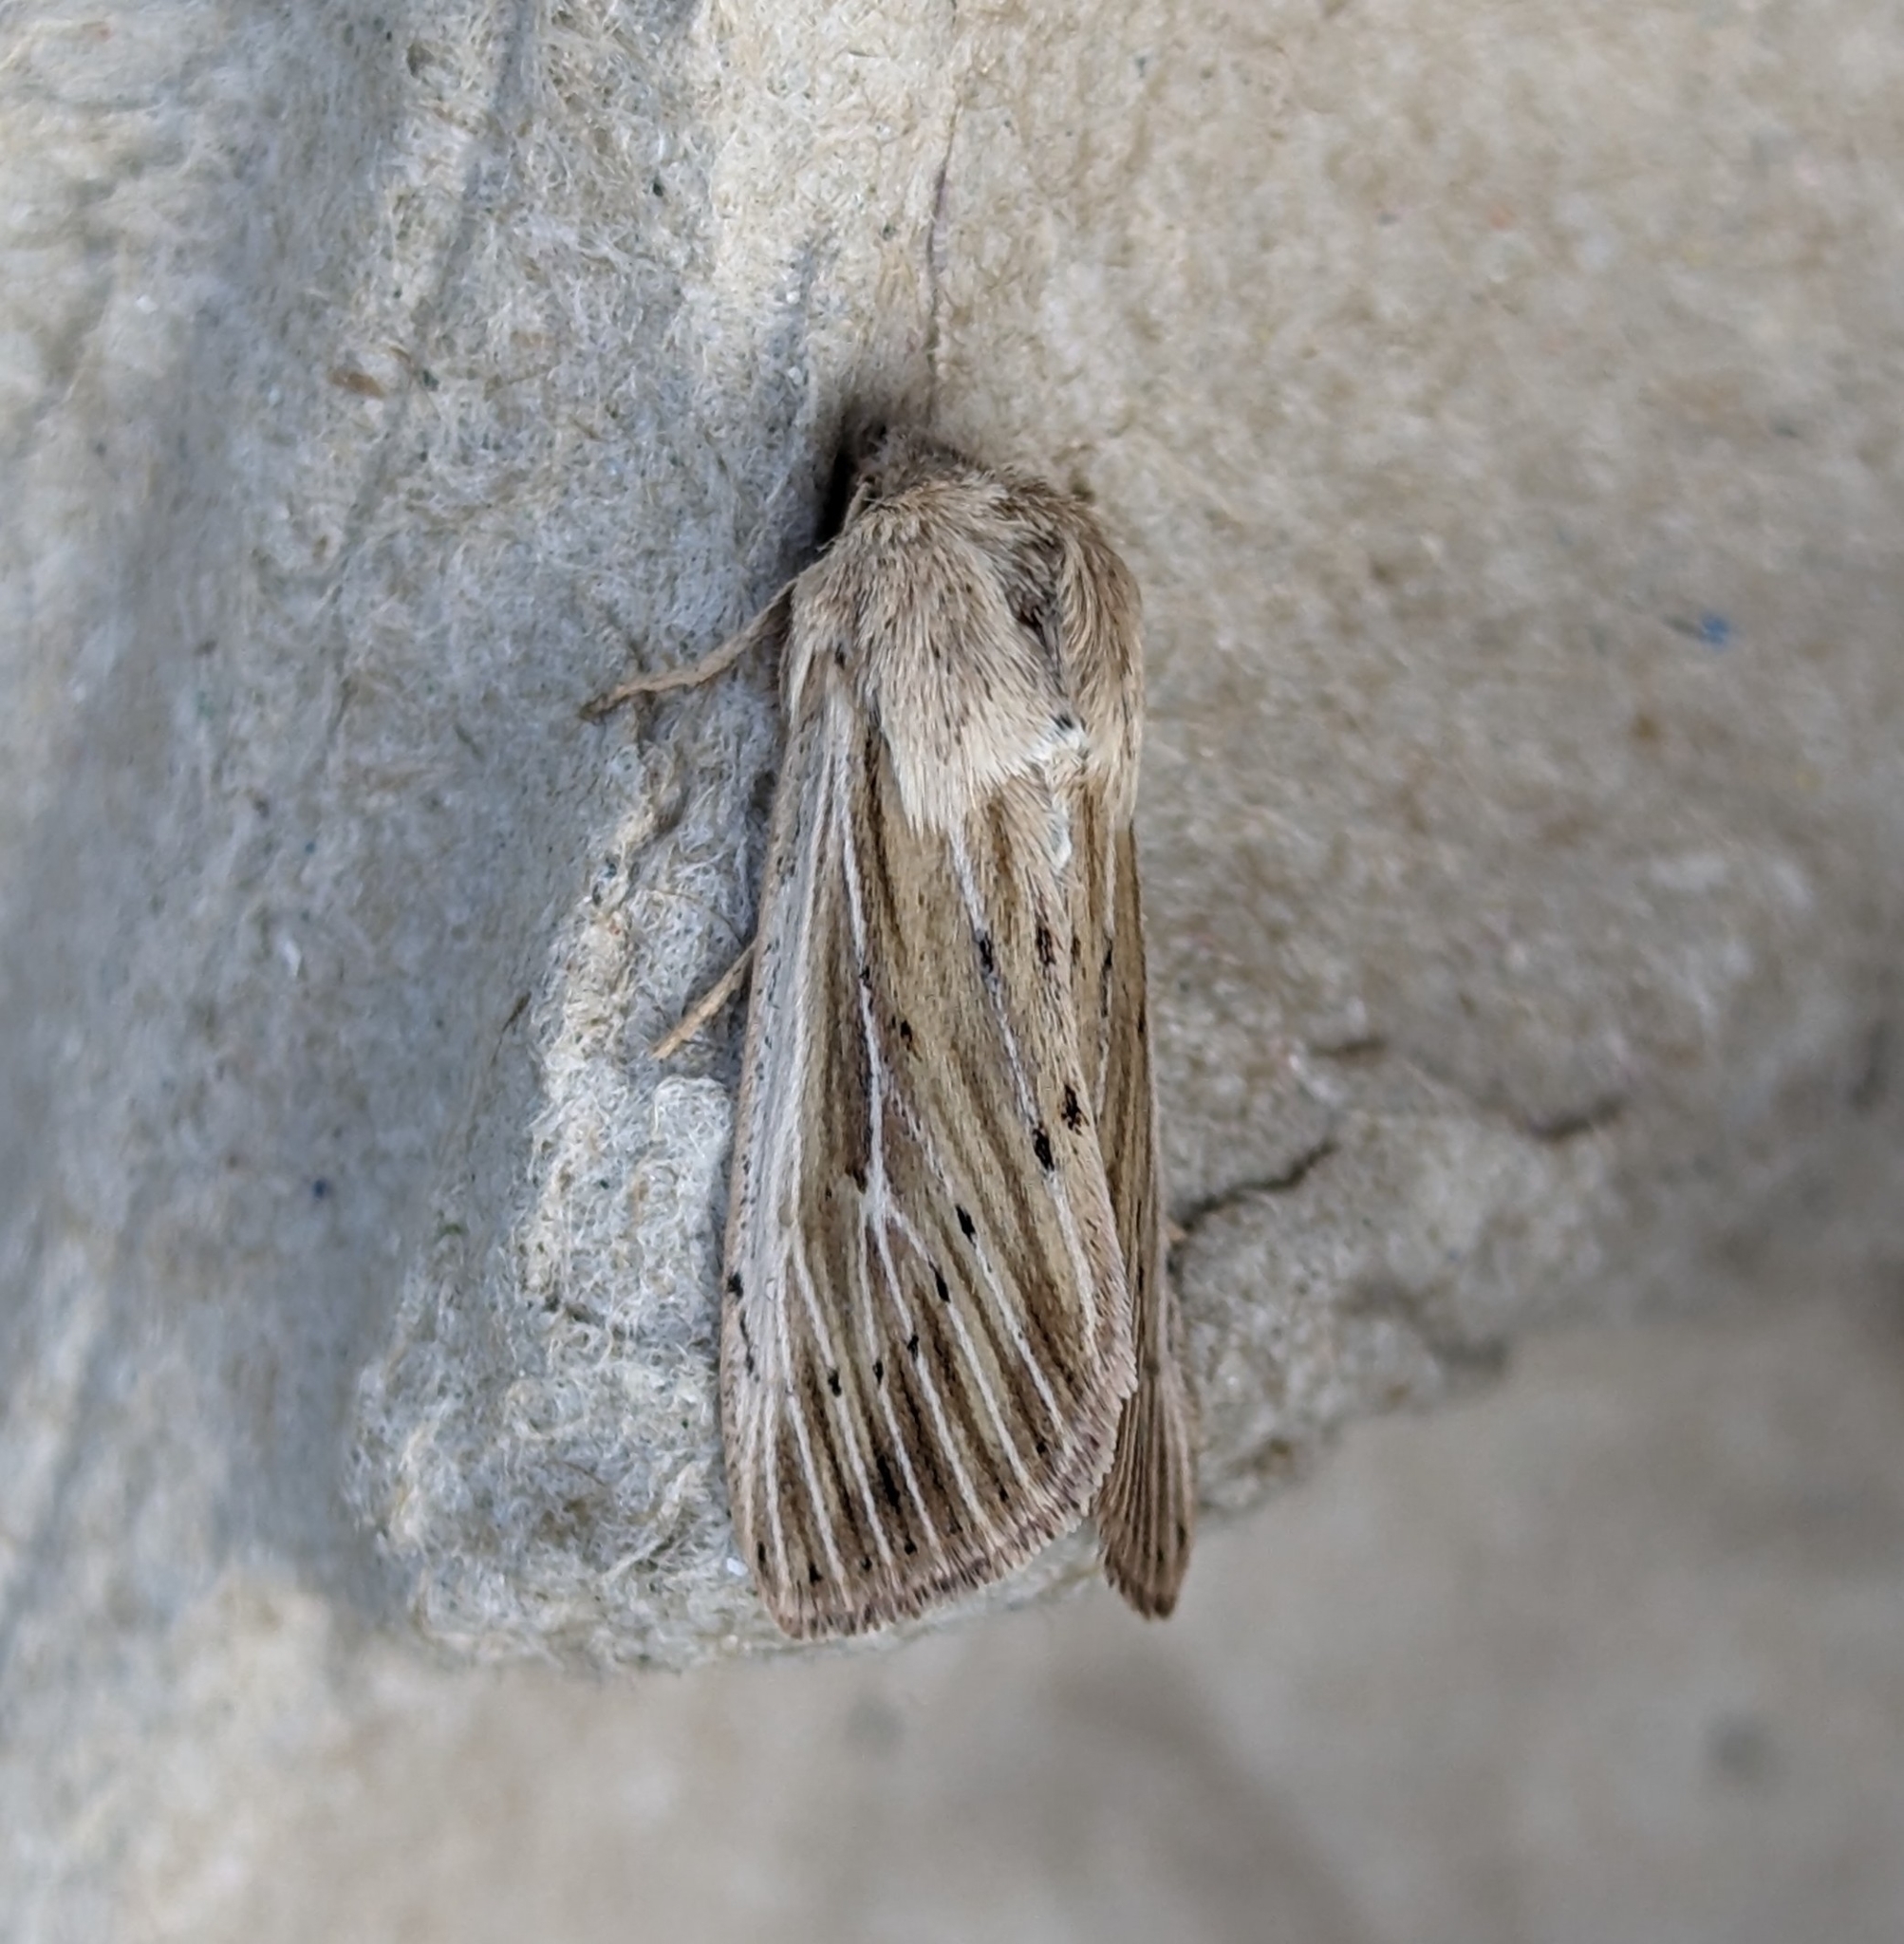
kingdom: Animalia
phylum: Arthropoda
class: Insecta
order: Lepidoptera
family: Noctuidae
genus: Leucania
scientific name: Leucania insueta
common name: Heterodox wainscot moth
